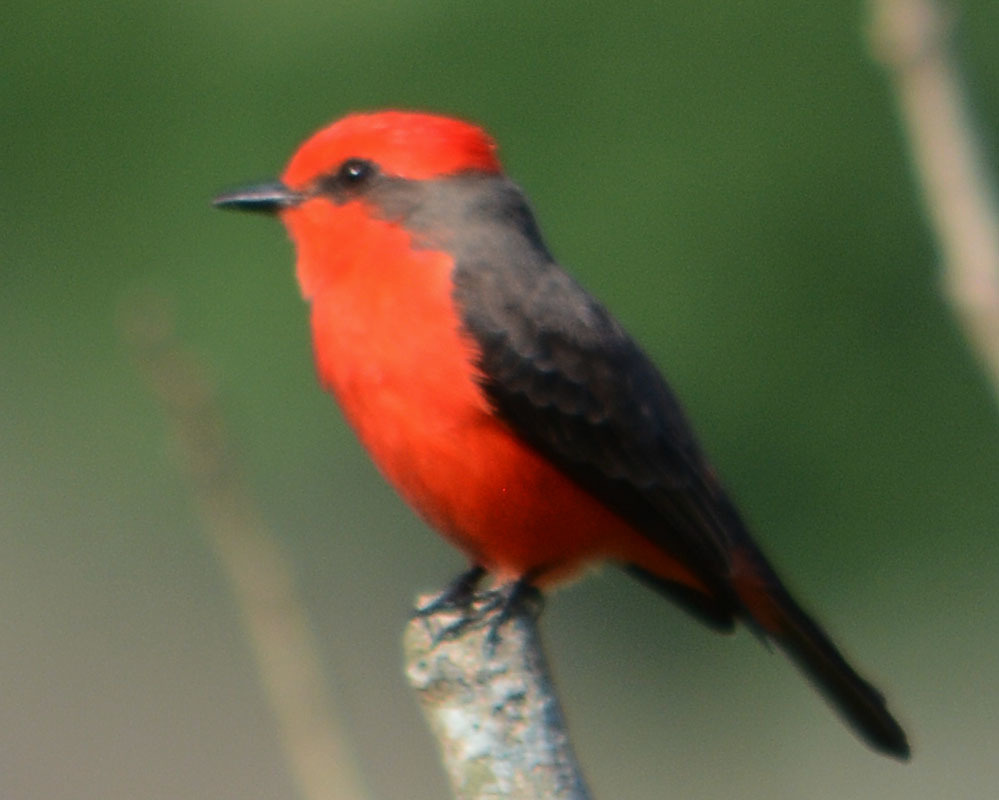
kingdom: Animalia
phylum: Chordata
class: Aves
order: Passeriformes
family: Tyrannidae
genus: Pyrocephalus
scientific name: Pyrocephalus rubinus
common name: Vermilion flycatcher
